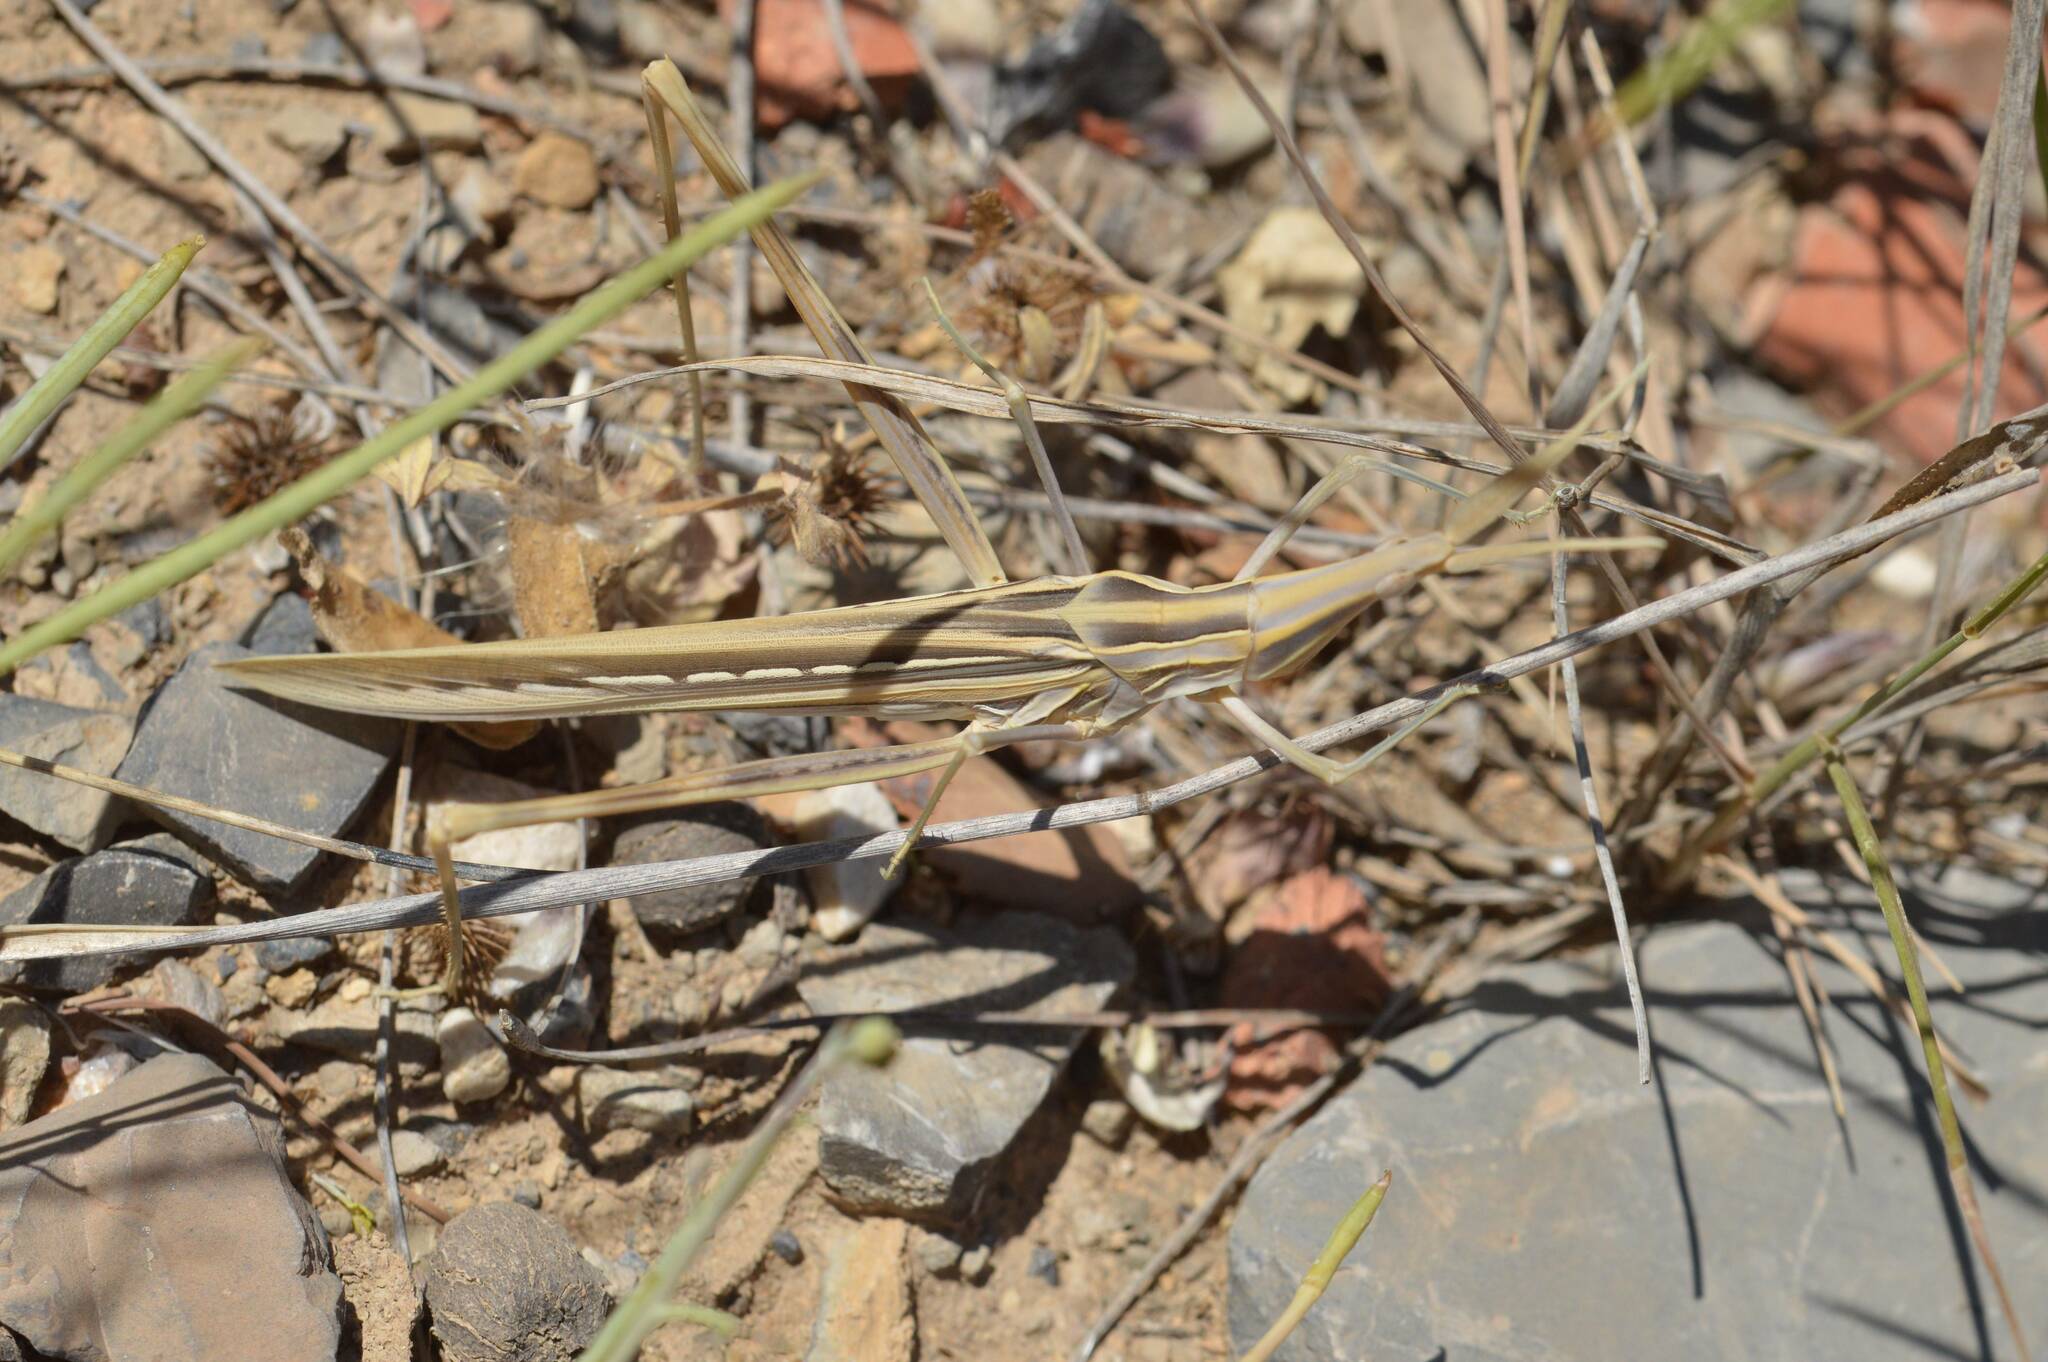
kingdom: Animalia
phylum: Arthropoda
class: Insecta
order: Orthoptera
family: Acrididae
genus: Truxalis
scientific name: Truxalis nasuta
